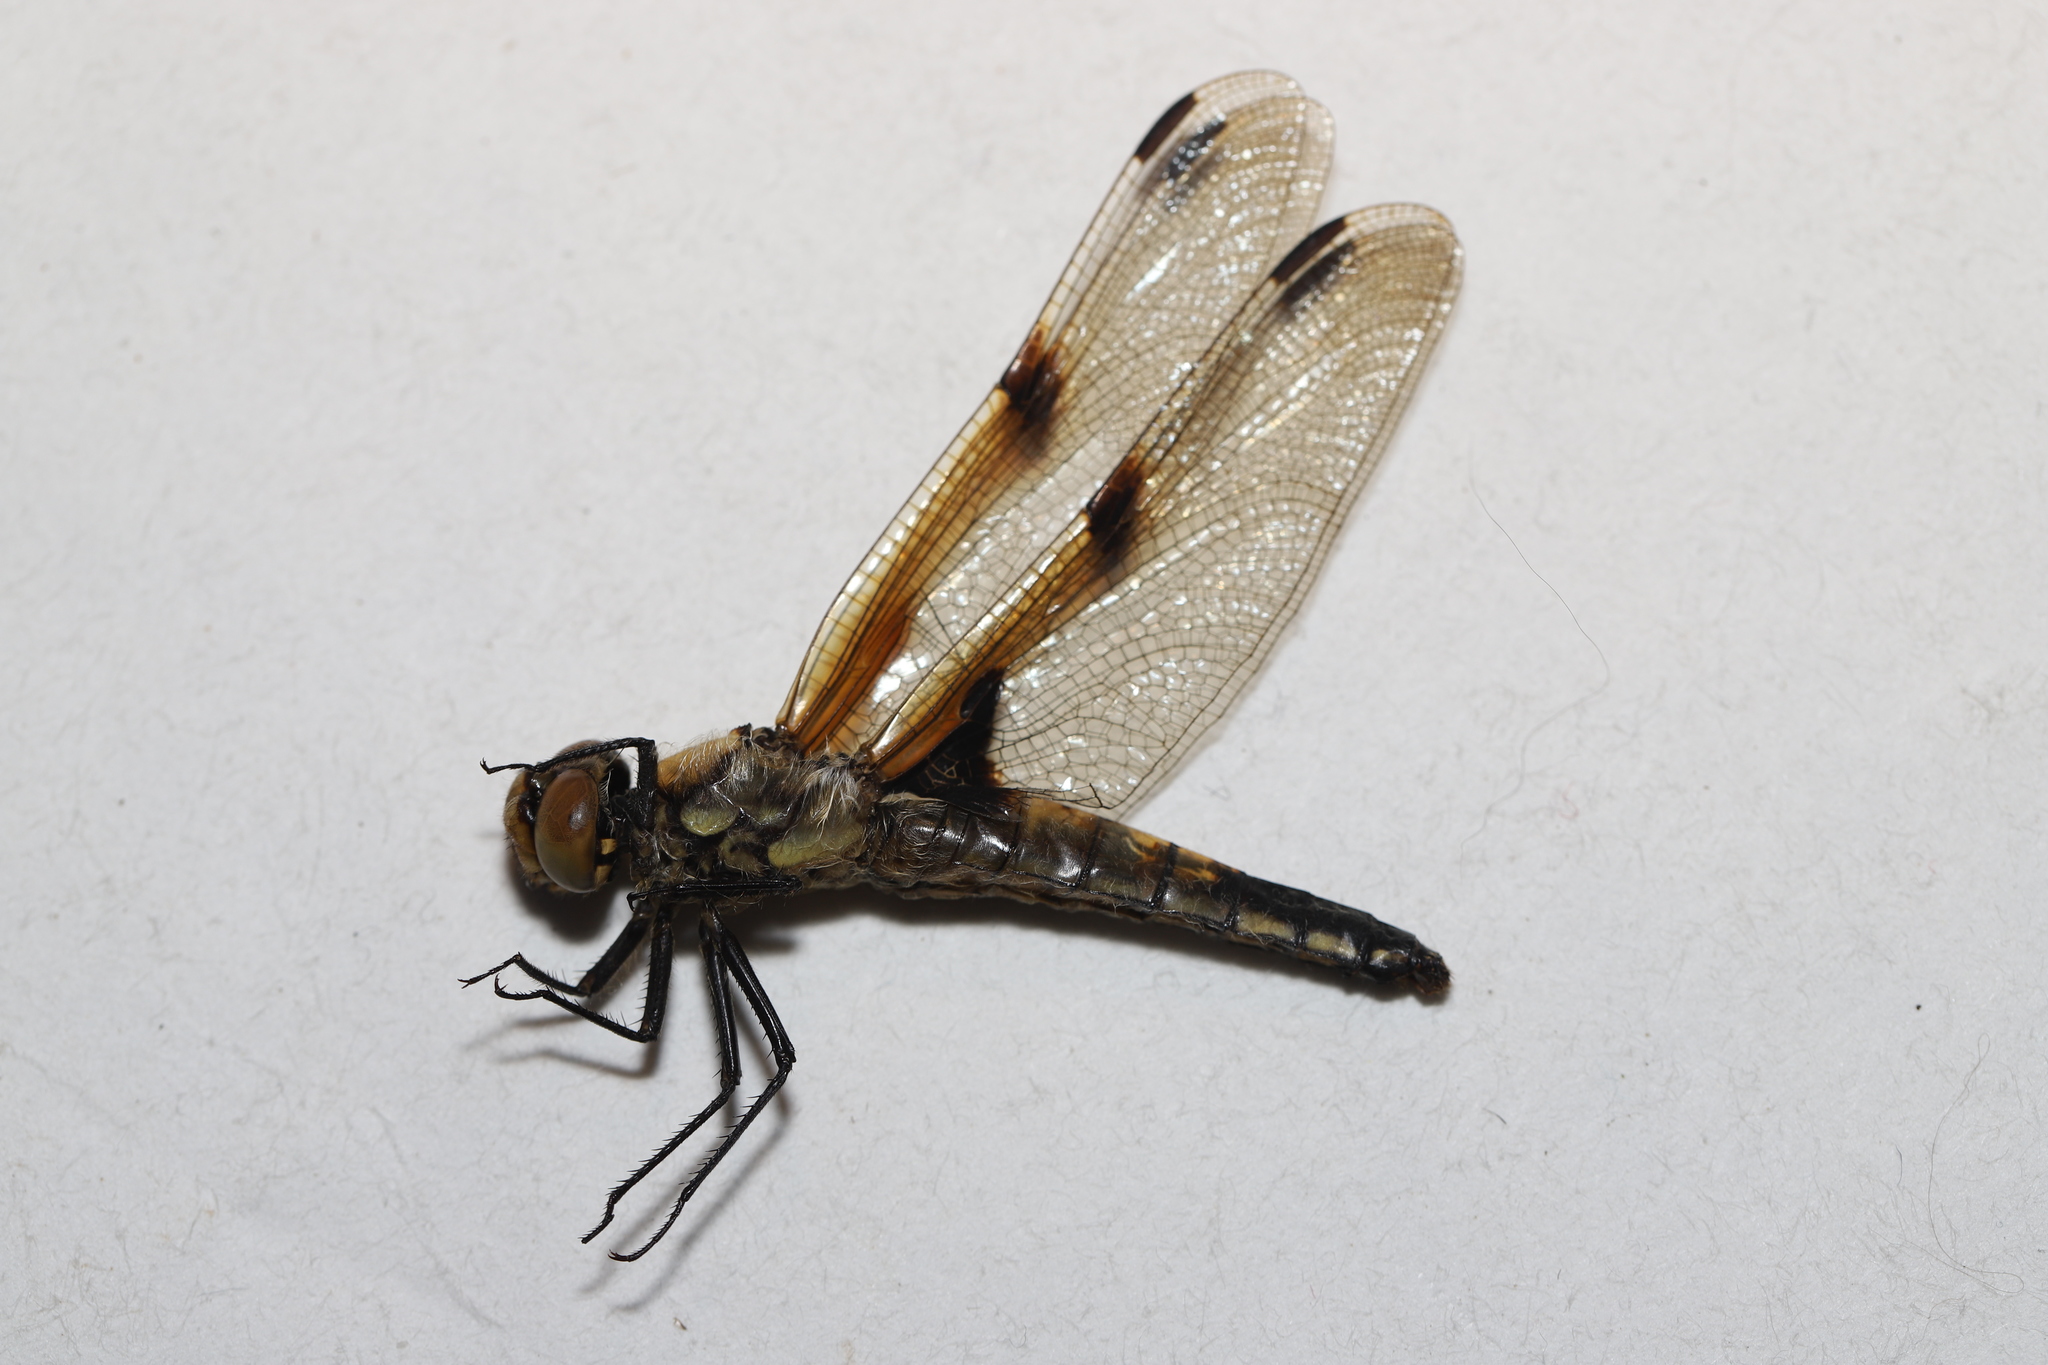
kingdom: Animalia
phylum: Arthropoda
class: Insecta
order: Odonata
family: Libellulidae
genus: Libellula
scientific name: Libellula quadrimaculata
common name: Four-spotted chaser
